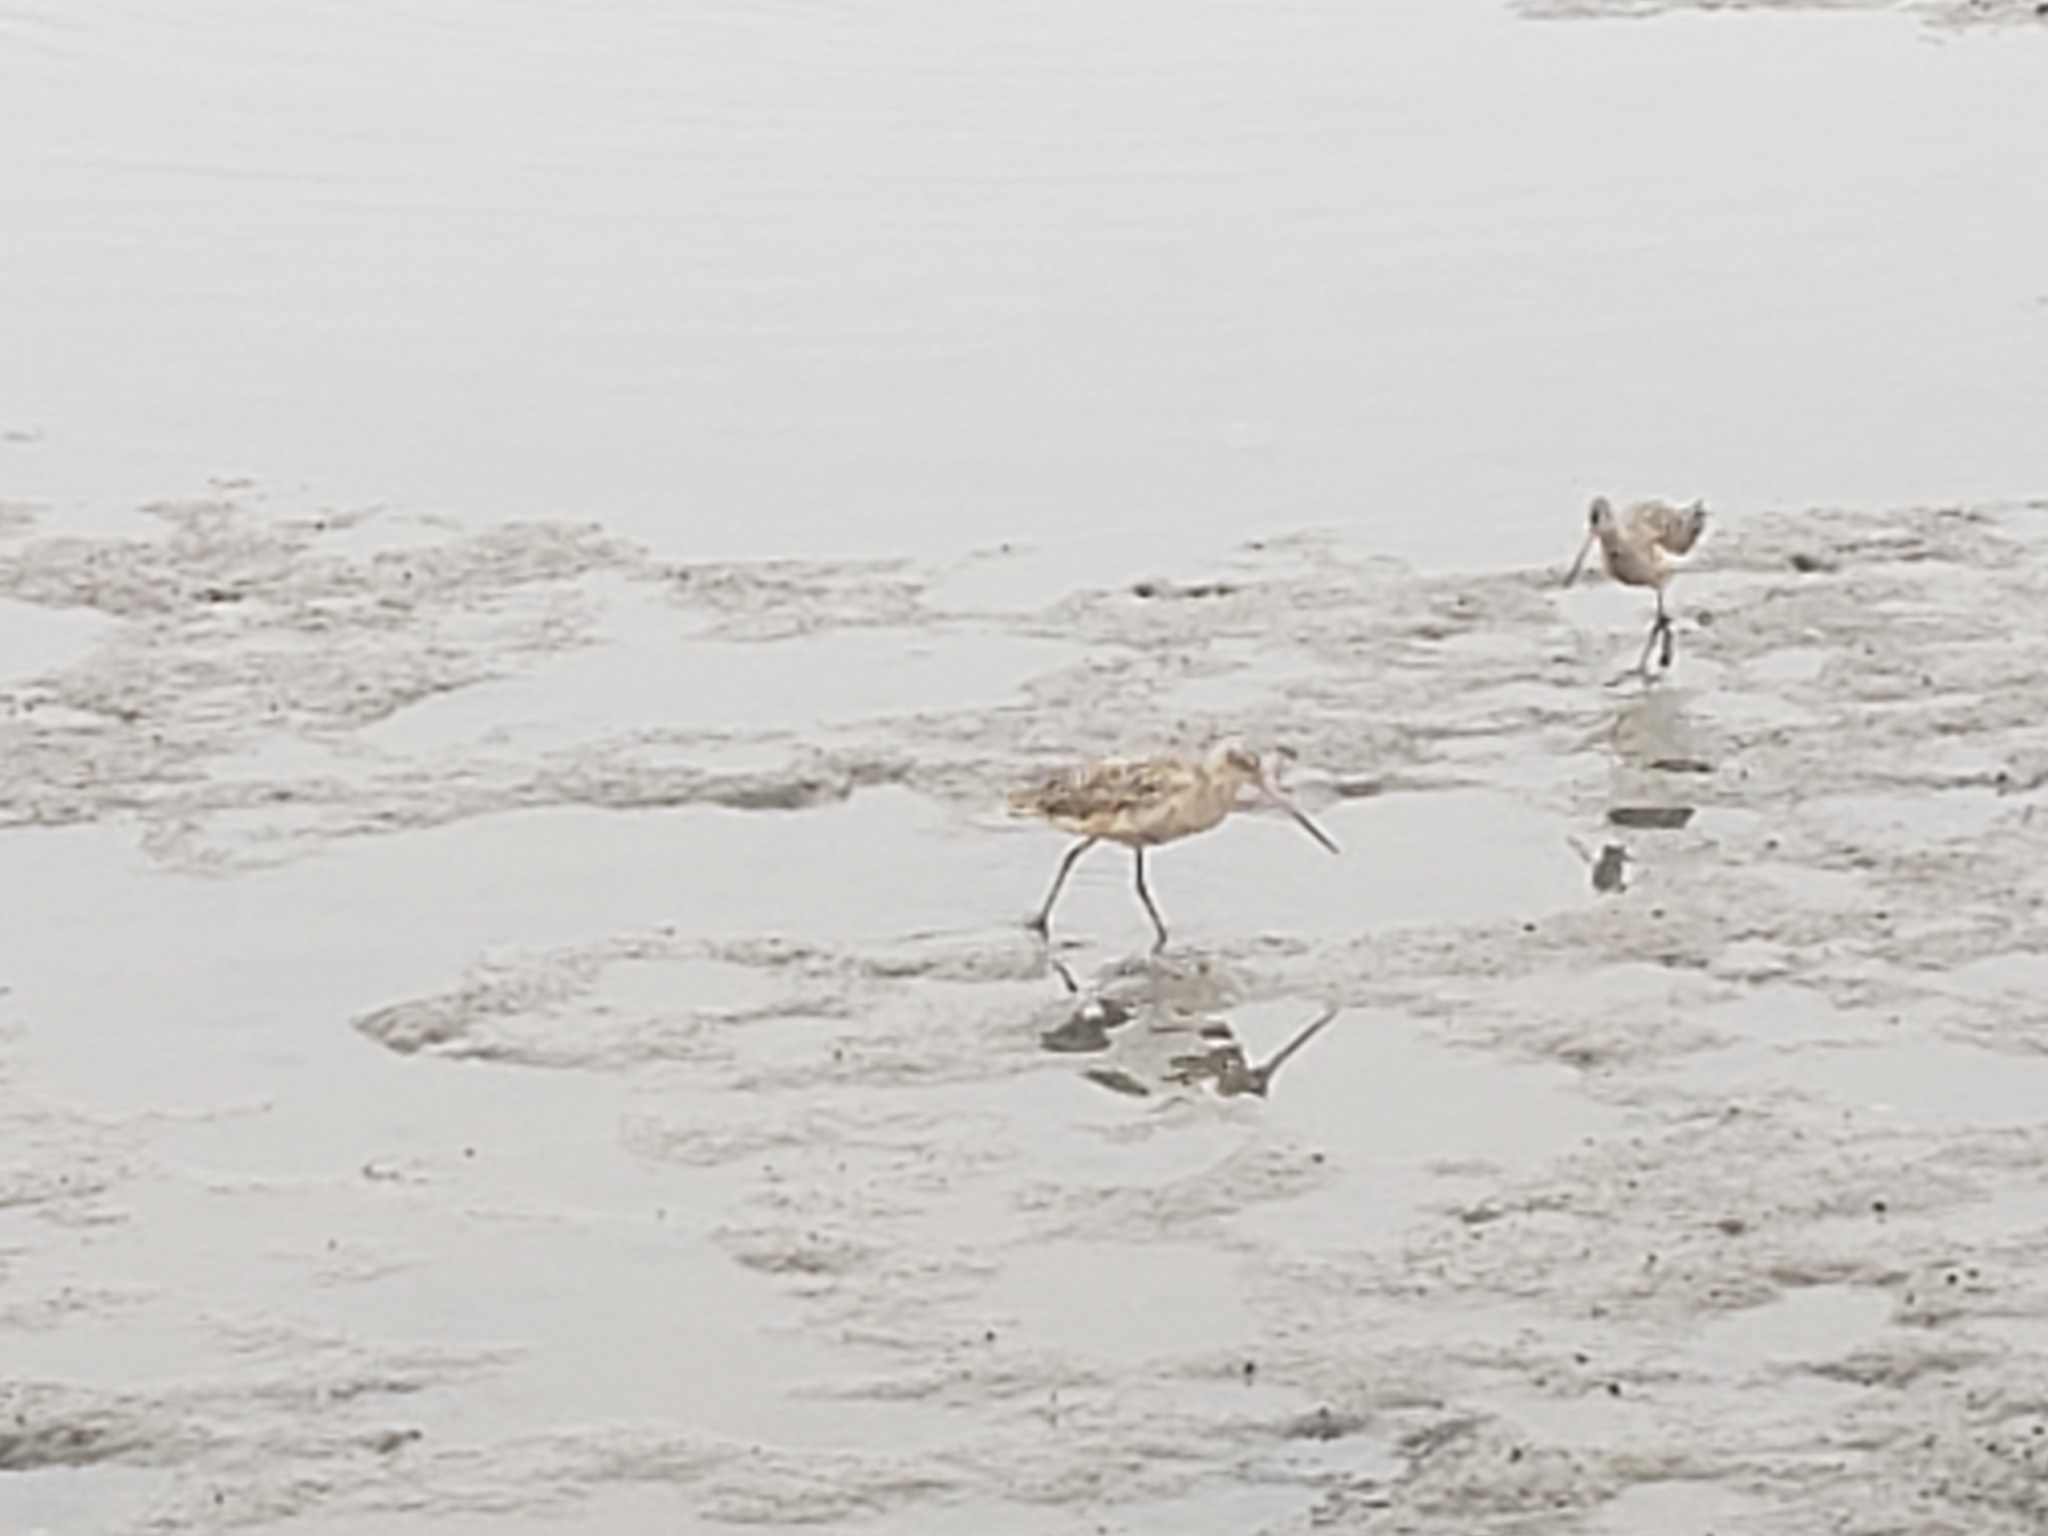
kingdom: Animalia
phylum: Chordata
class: Aves
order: Charadriiformes
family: Scolopacidae
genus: Limosa
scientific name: Limosa fedoa
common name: Marbled godwit
